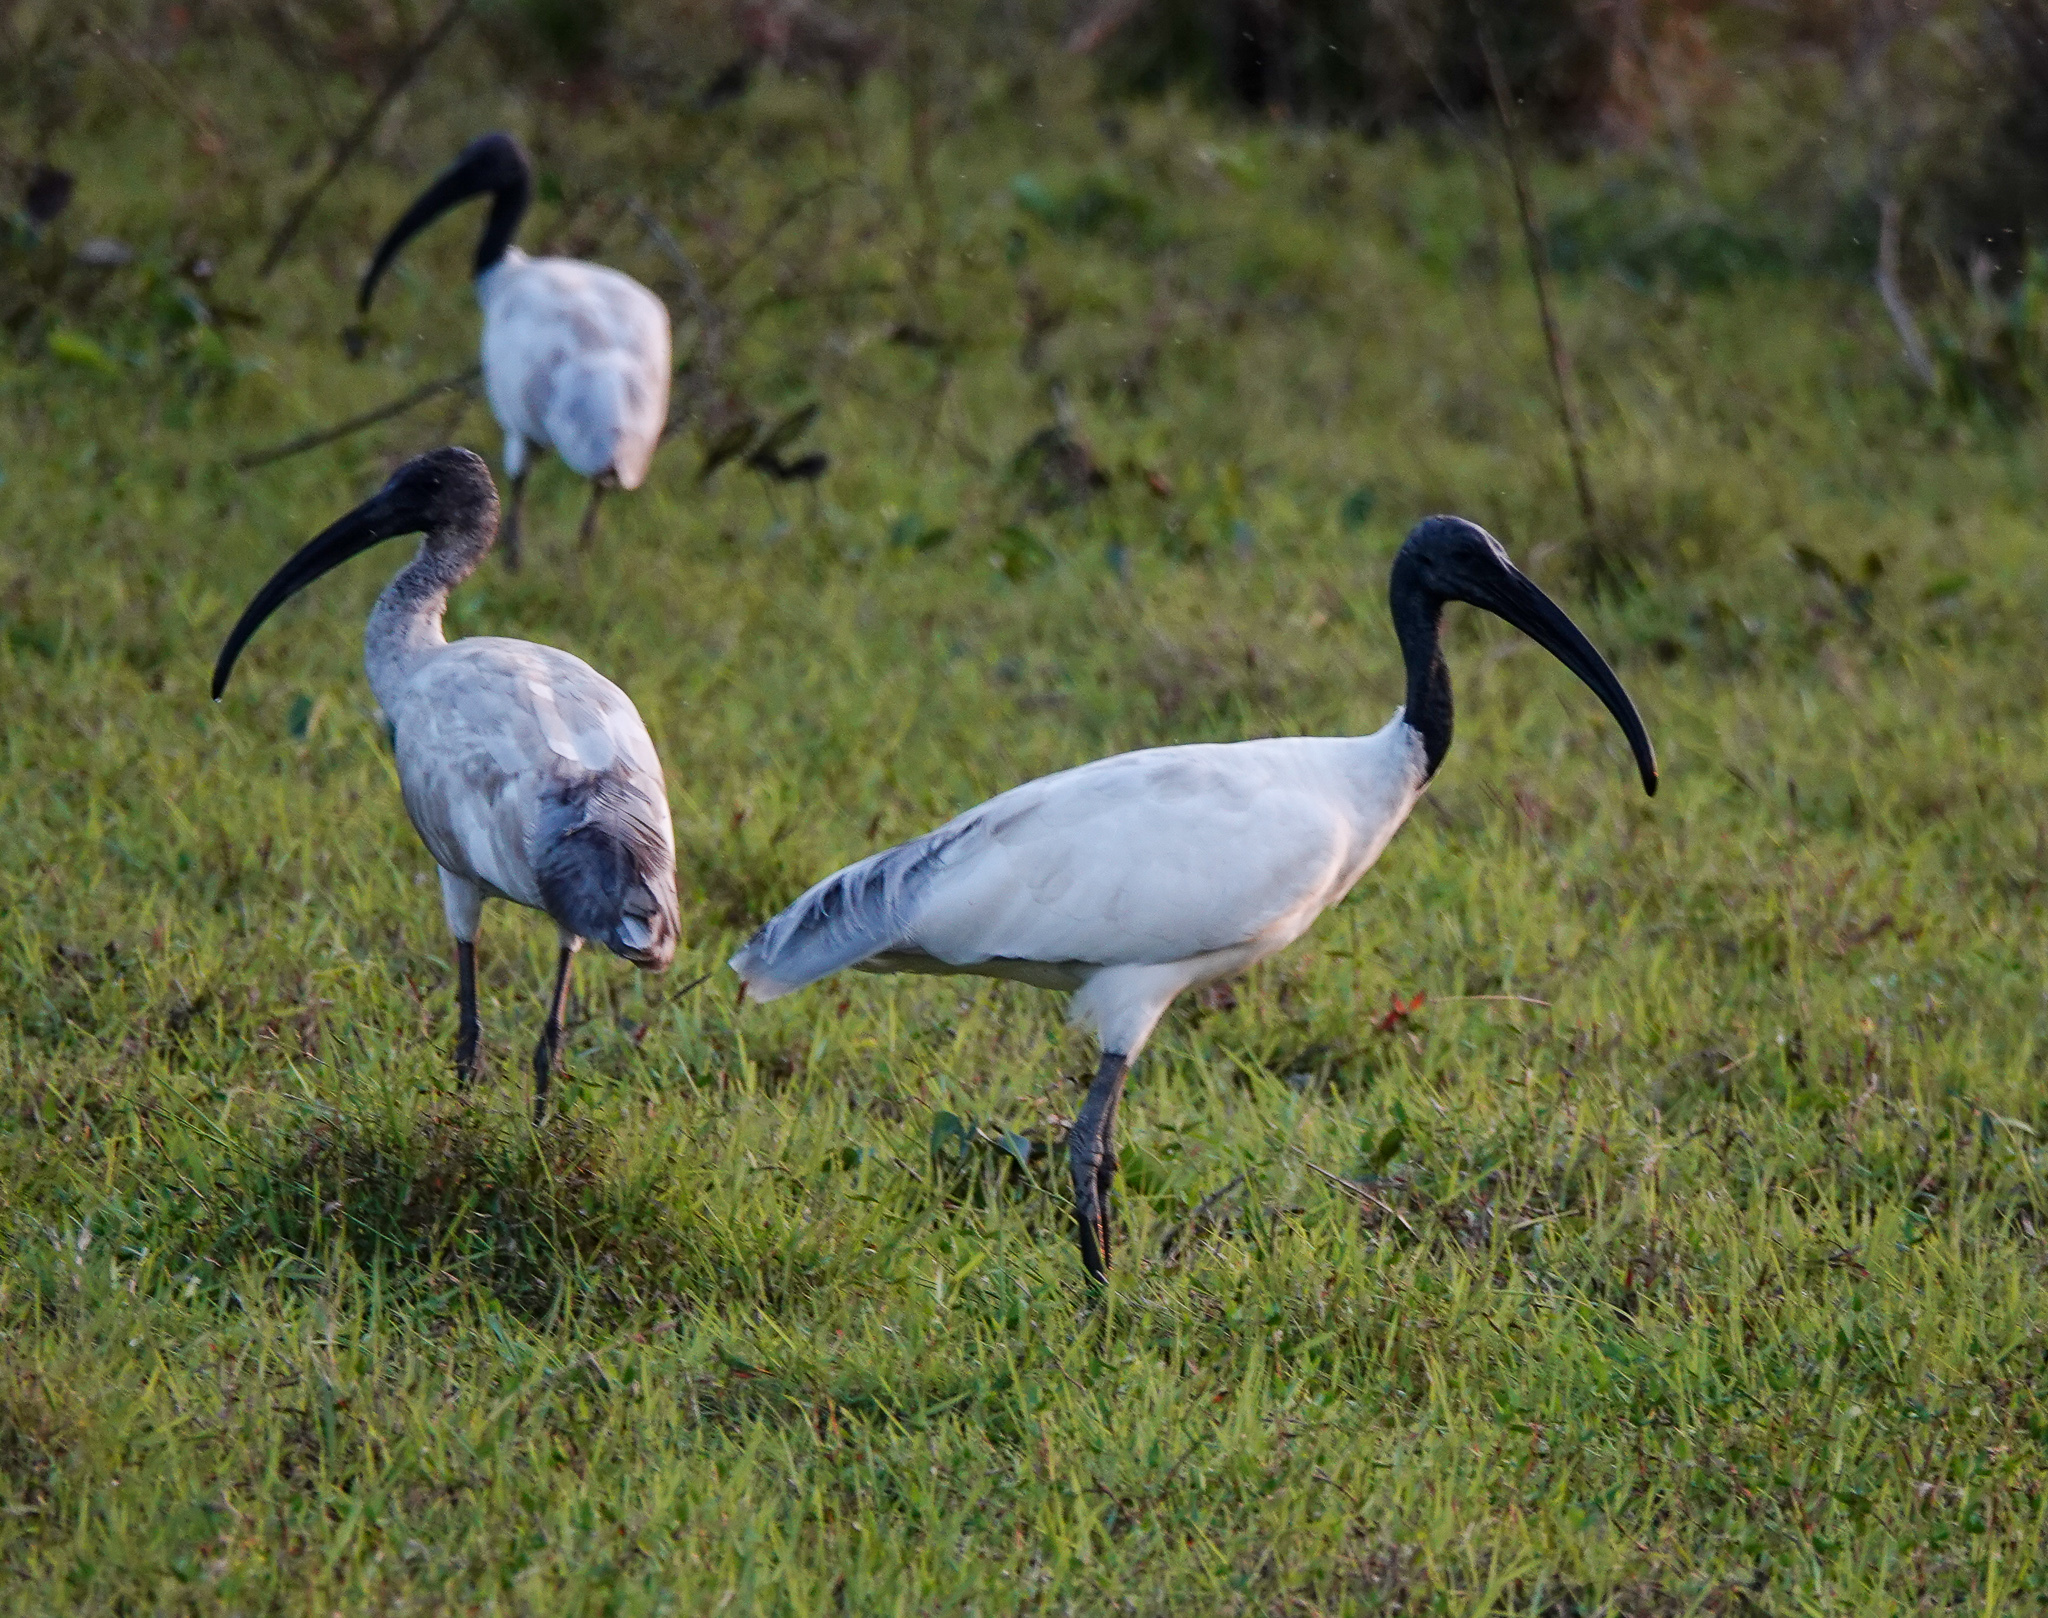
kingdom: Animalia
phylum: Chordata
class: Aves
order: Pelecaniformes
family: Threskiornithidae
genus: Threskiornis
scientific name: Threskiornis melanocephalus
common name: Black-headed ibis
